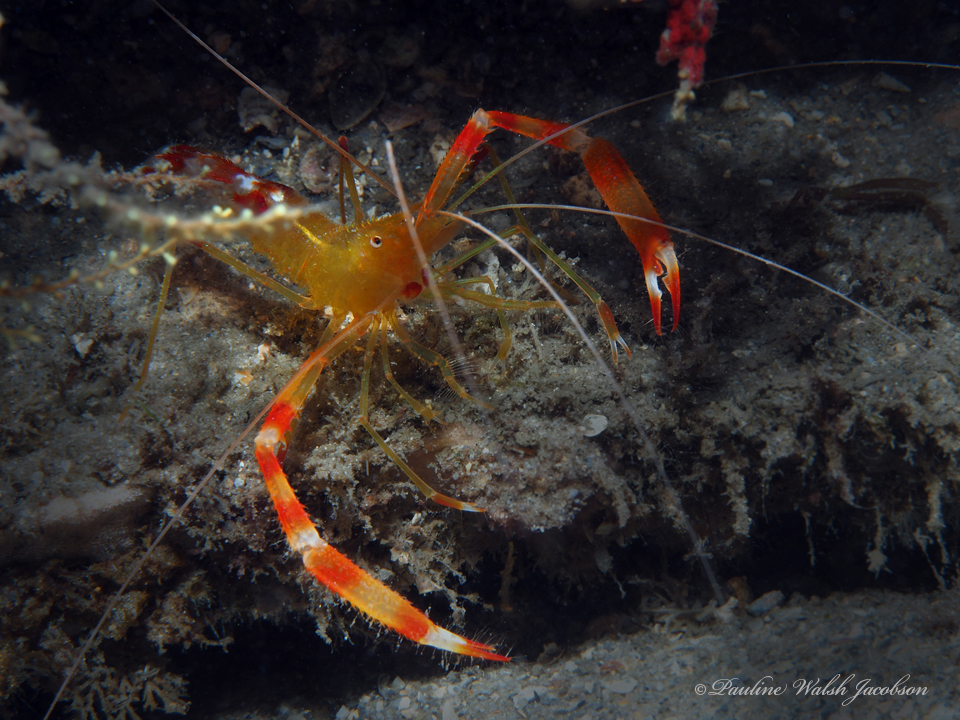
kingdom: Animalia
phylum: Arthropoda
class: Malacostraca
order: Decapoda
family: Stenopodidae
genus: Stenopus
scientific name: Stenopus scutellatus
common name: Golden coral shrimp
